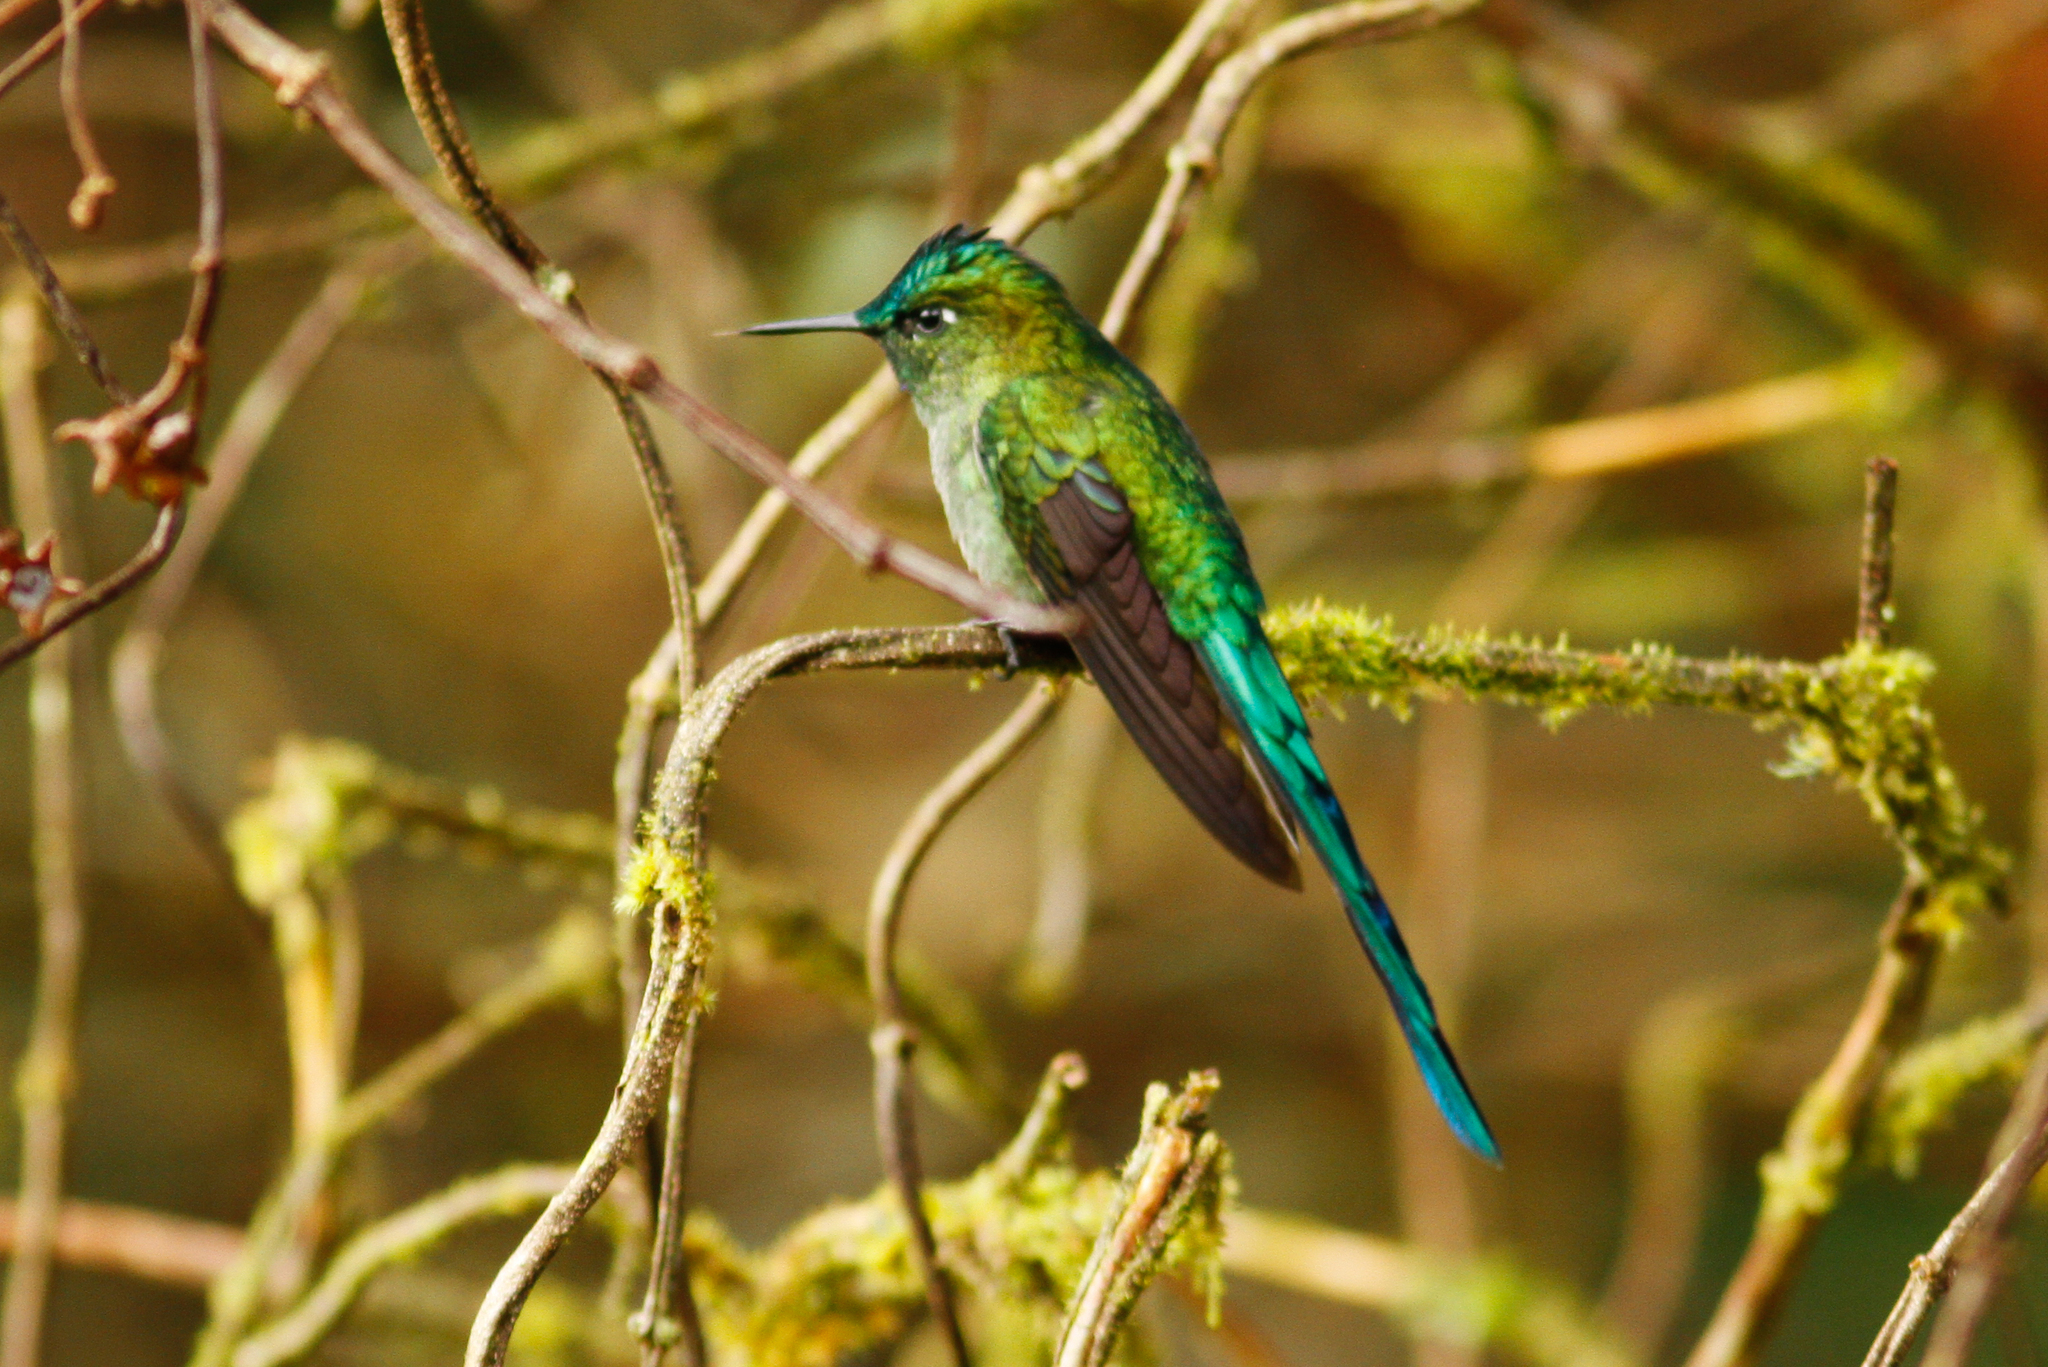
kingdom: Animalia
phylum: Chordata
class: Aves
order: Apodiformes
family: Trochilidae
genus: Aglaiocercus
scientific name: Aglaiocercus kingii
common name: Long-tailed sylph
